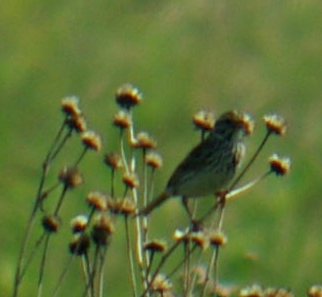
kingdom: Animalia
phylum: Chordata
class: Aves
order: Passeriformes
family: Passerellidae
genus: Passerculus
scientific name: Passerculus sandwichensis
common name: Savannah sparrow
